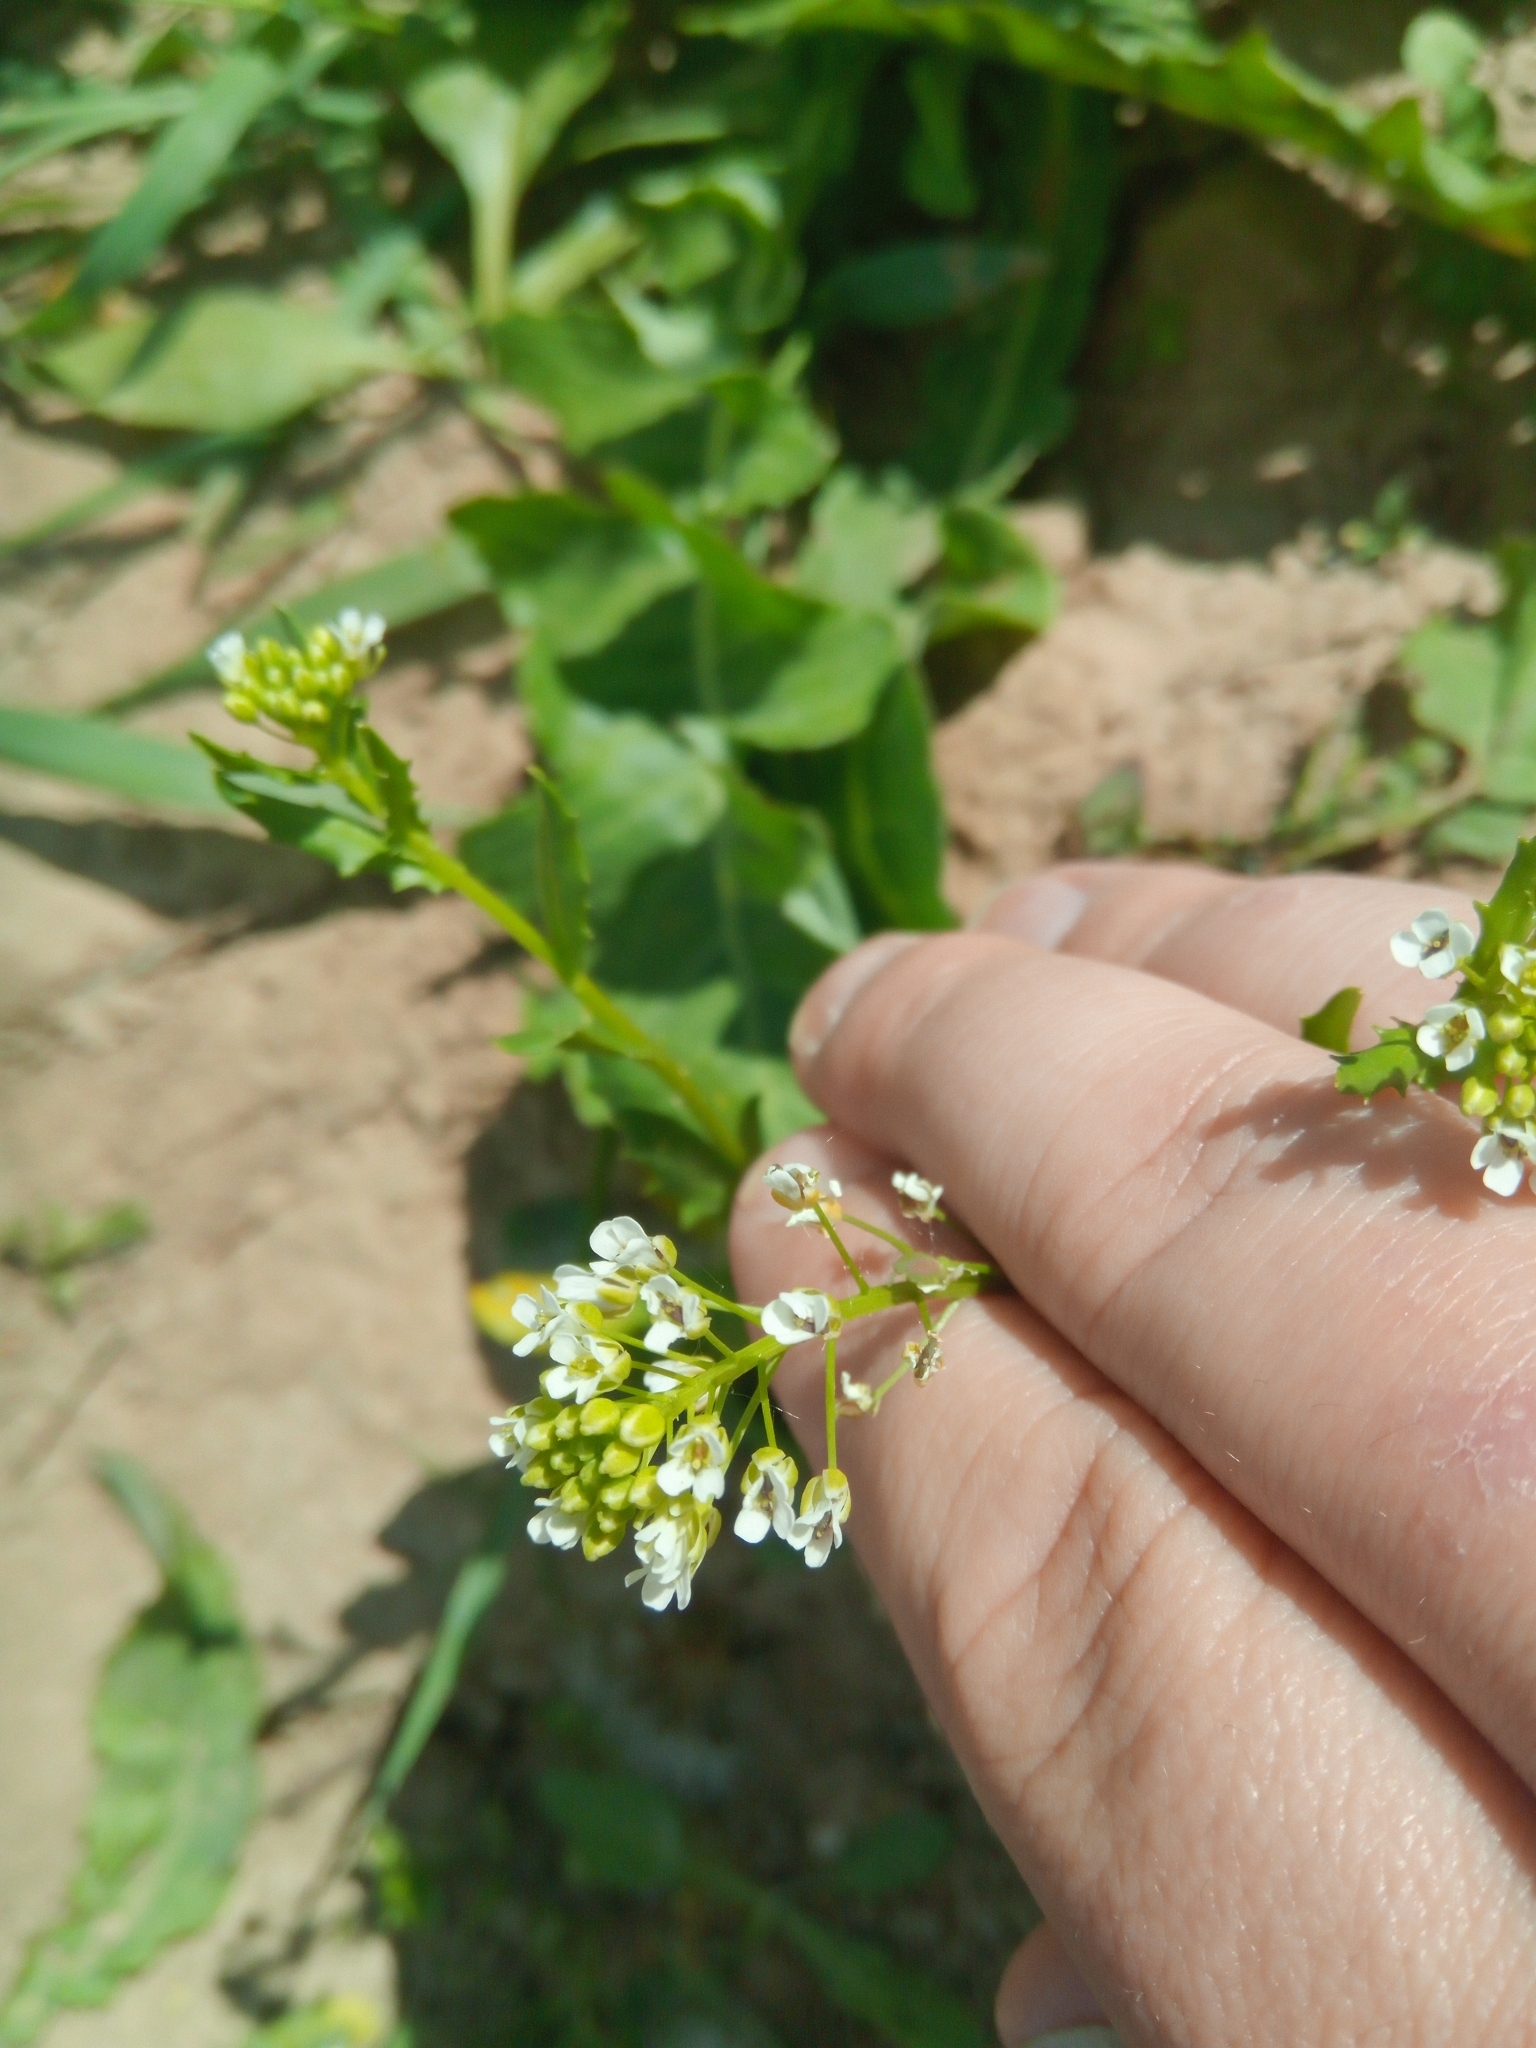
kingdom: Plantae
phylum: Tracheophyta
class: Magnoliopsida
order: Brassicales
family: Brassicaceae
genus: Thlaspi
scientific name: Thlaspi arvense
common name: Field pennycress
